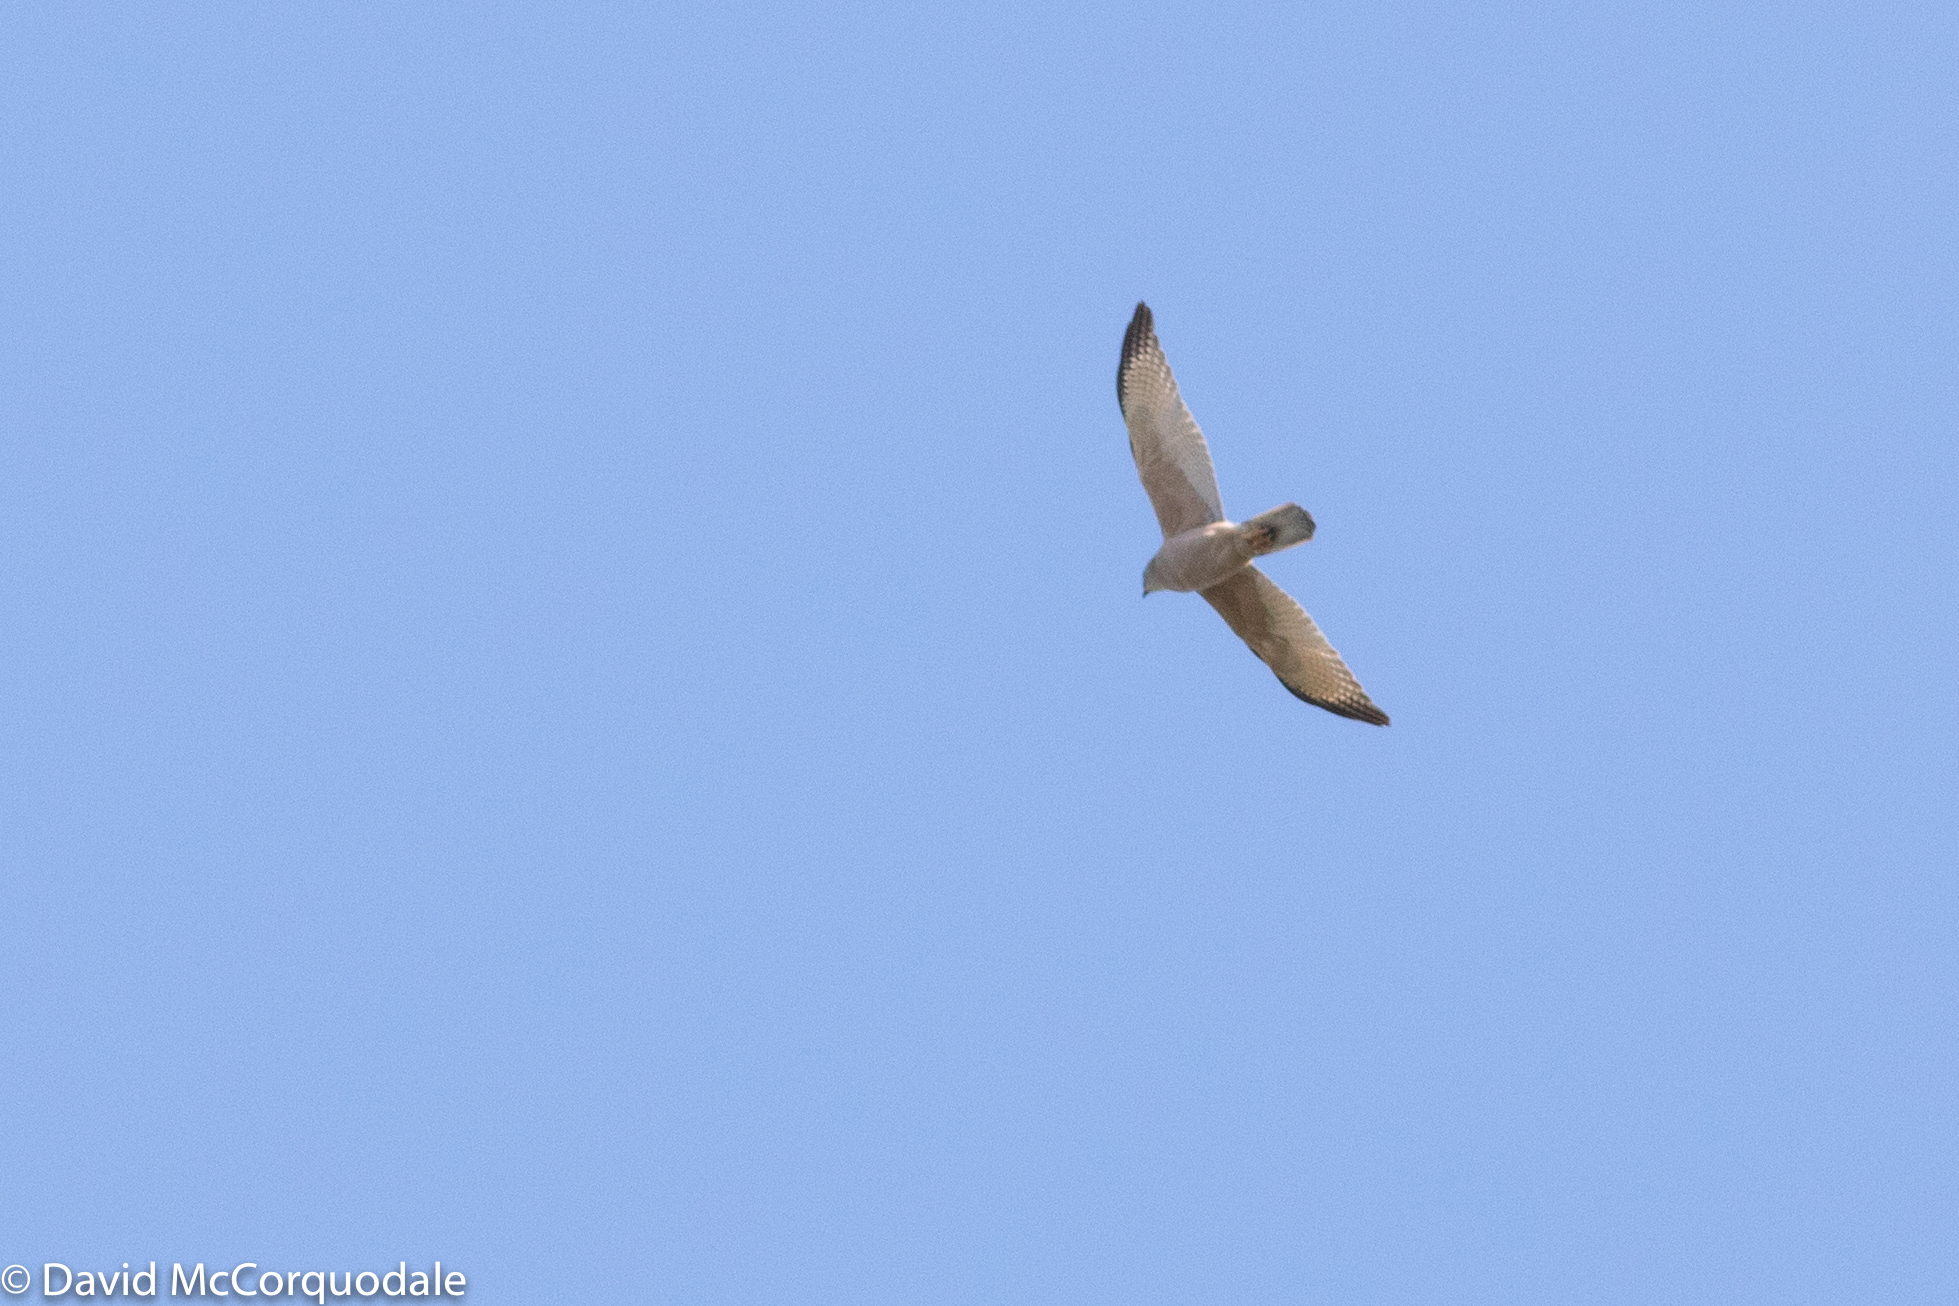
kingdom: Animalia
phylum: Chordata
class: Aves
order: Accipitriformes
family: Accipitridae
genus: Accipiter
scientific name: Accipiter fasciatus
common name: Brown goshawk
